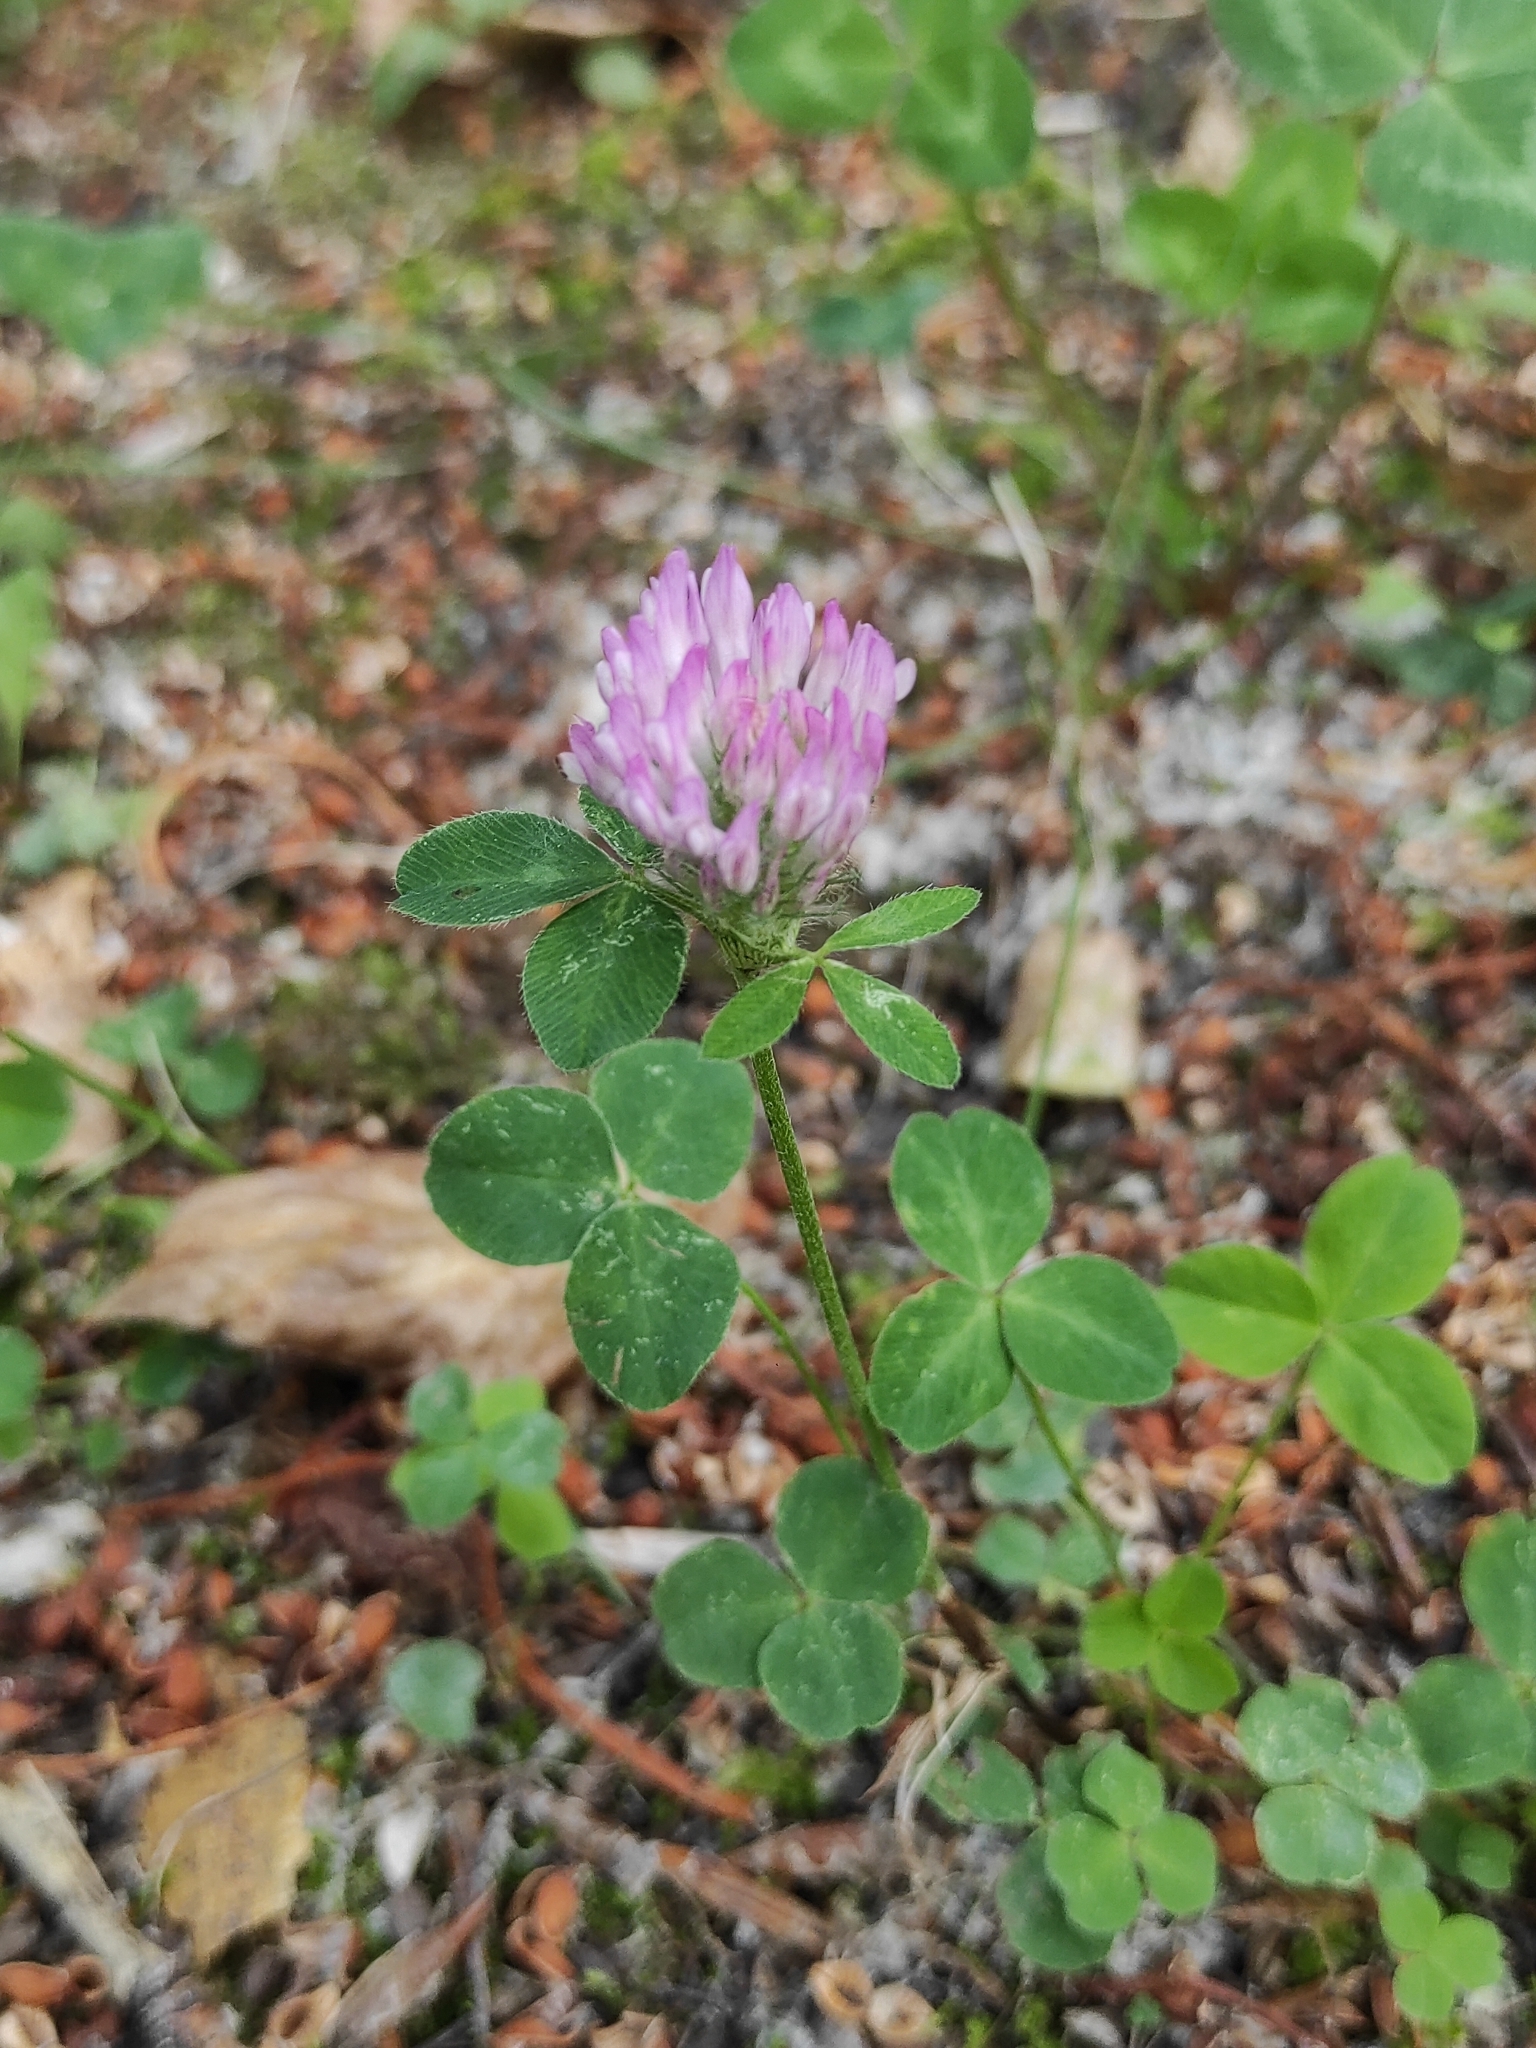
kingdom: Plantae
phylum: Tracheophyta
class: Magnoliopsida
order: Fabales
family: Fabaceae
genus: Trifolium
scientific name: Trifolium pratense
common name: Red clover
